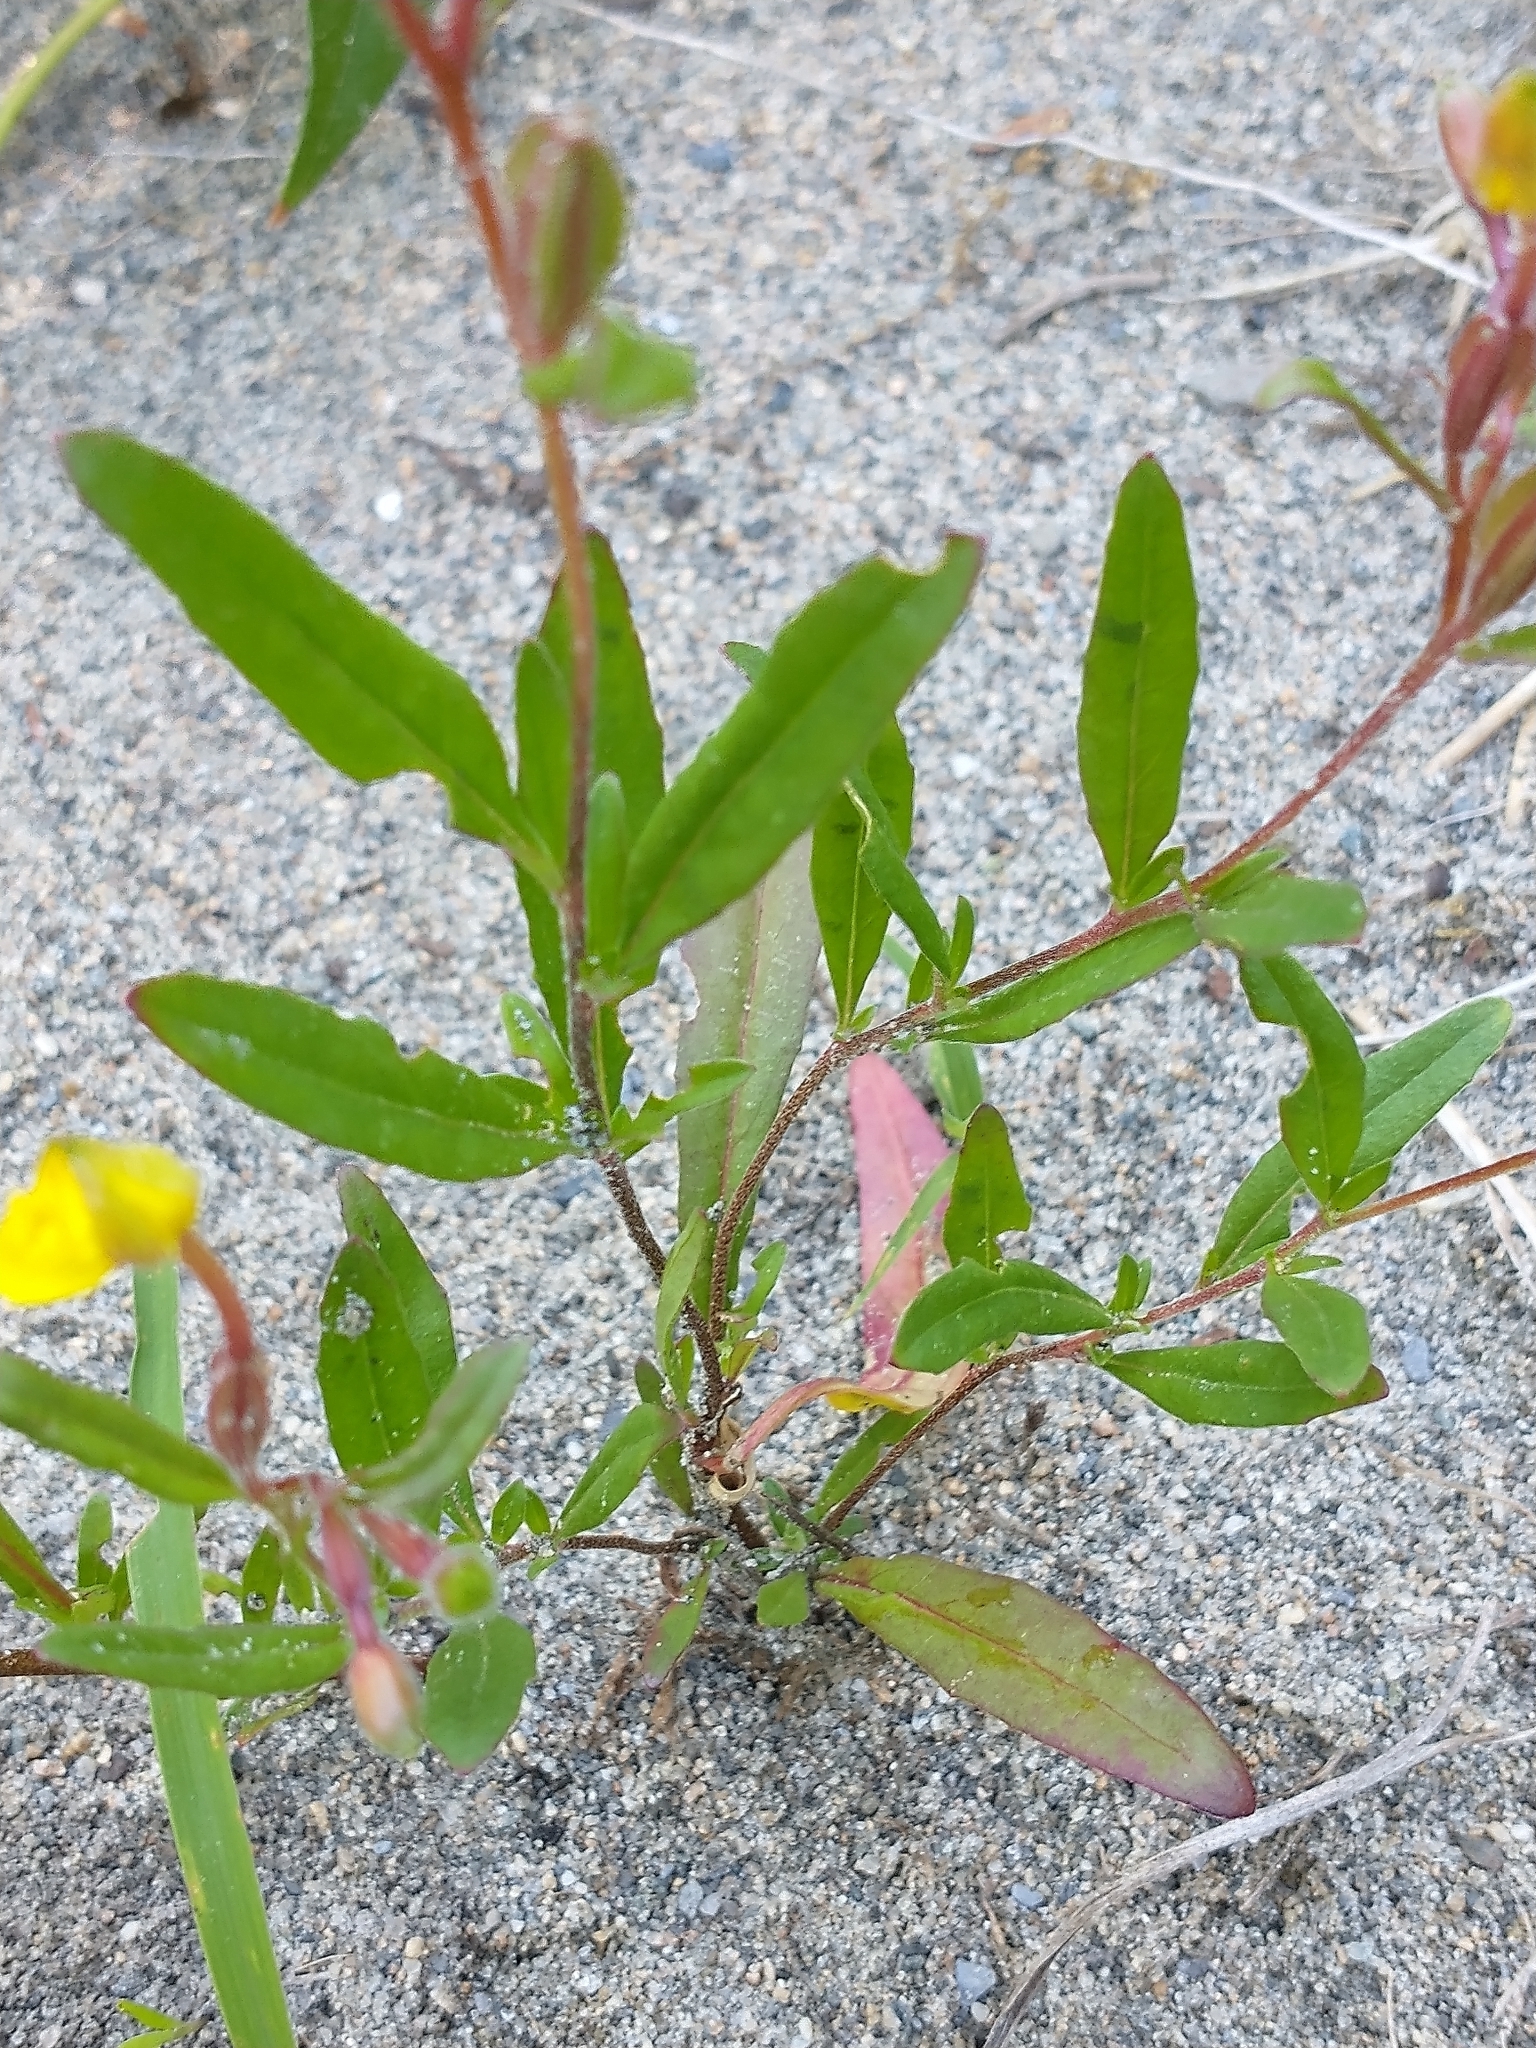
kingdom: Plantae
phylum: Tracheophyta
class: Magnoliopsida
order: Myrtales
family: Onagraceae
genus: Oenothera
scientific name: Oenothera perennis
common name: Small sundrops
